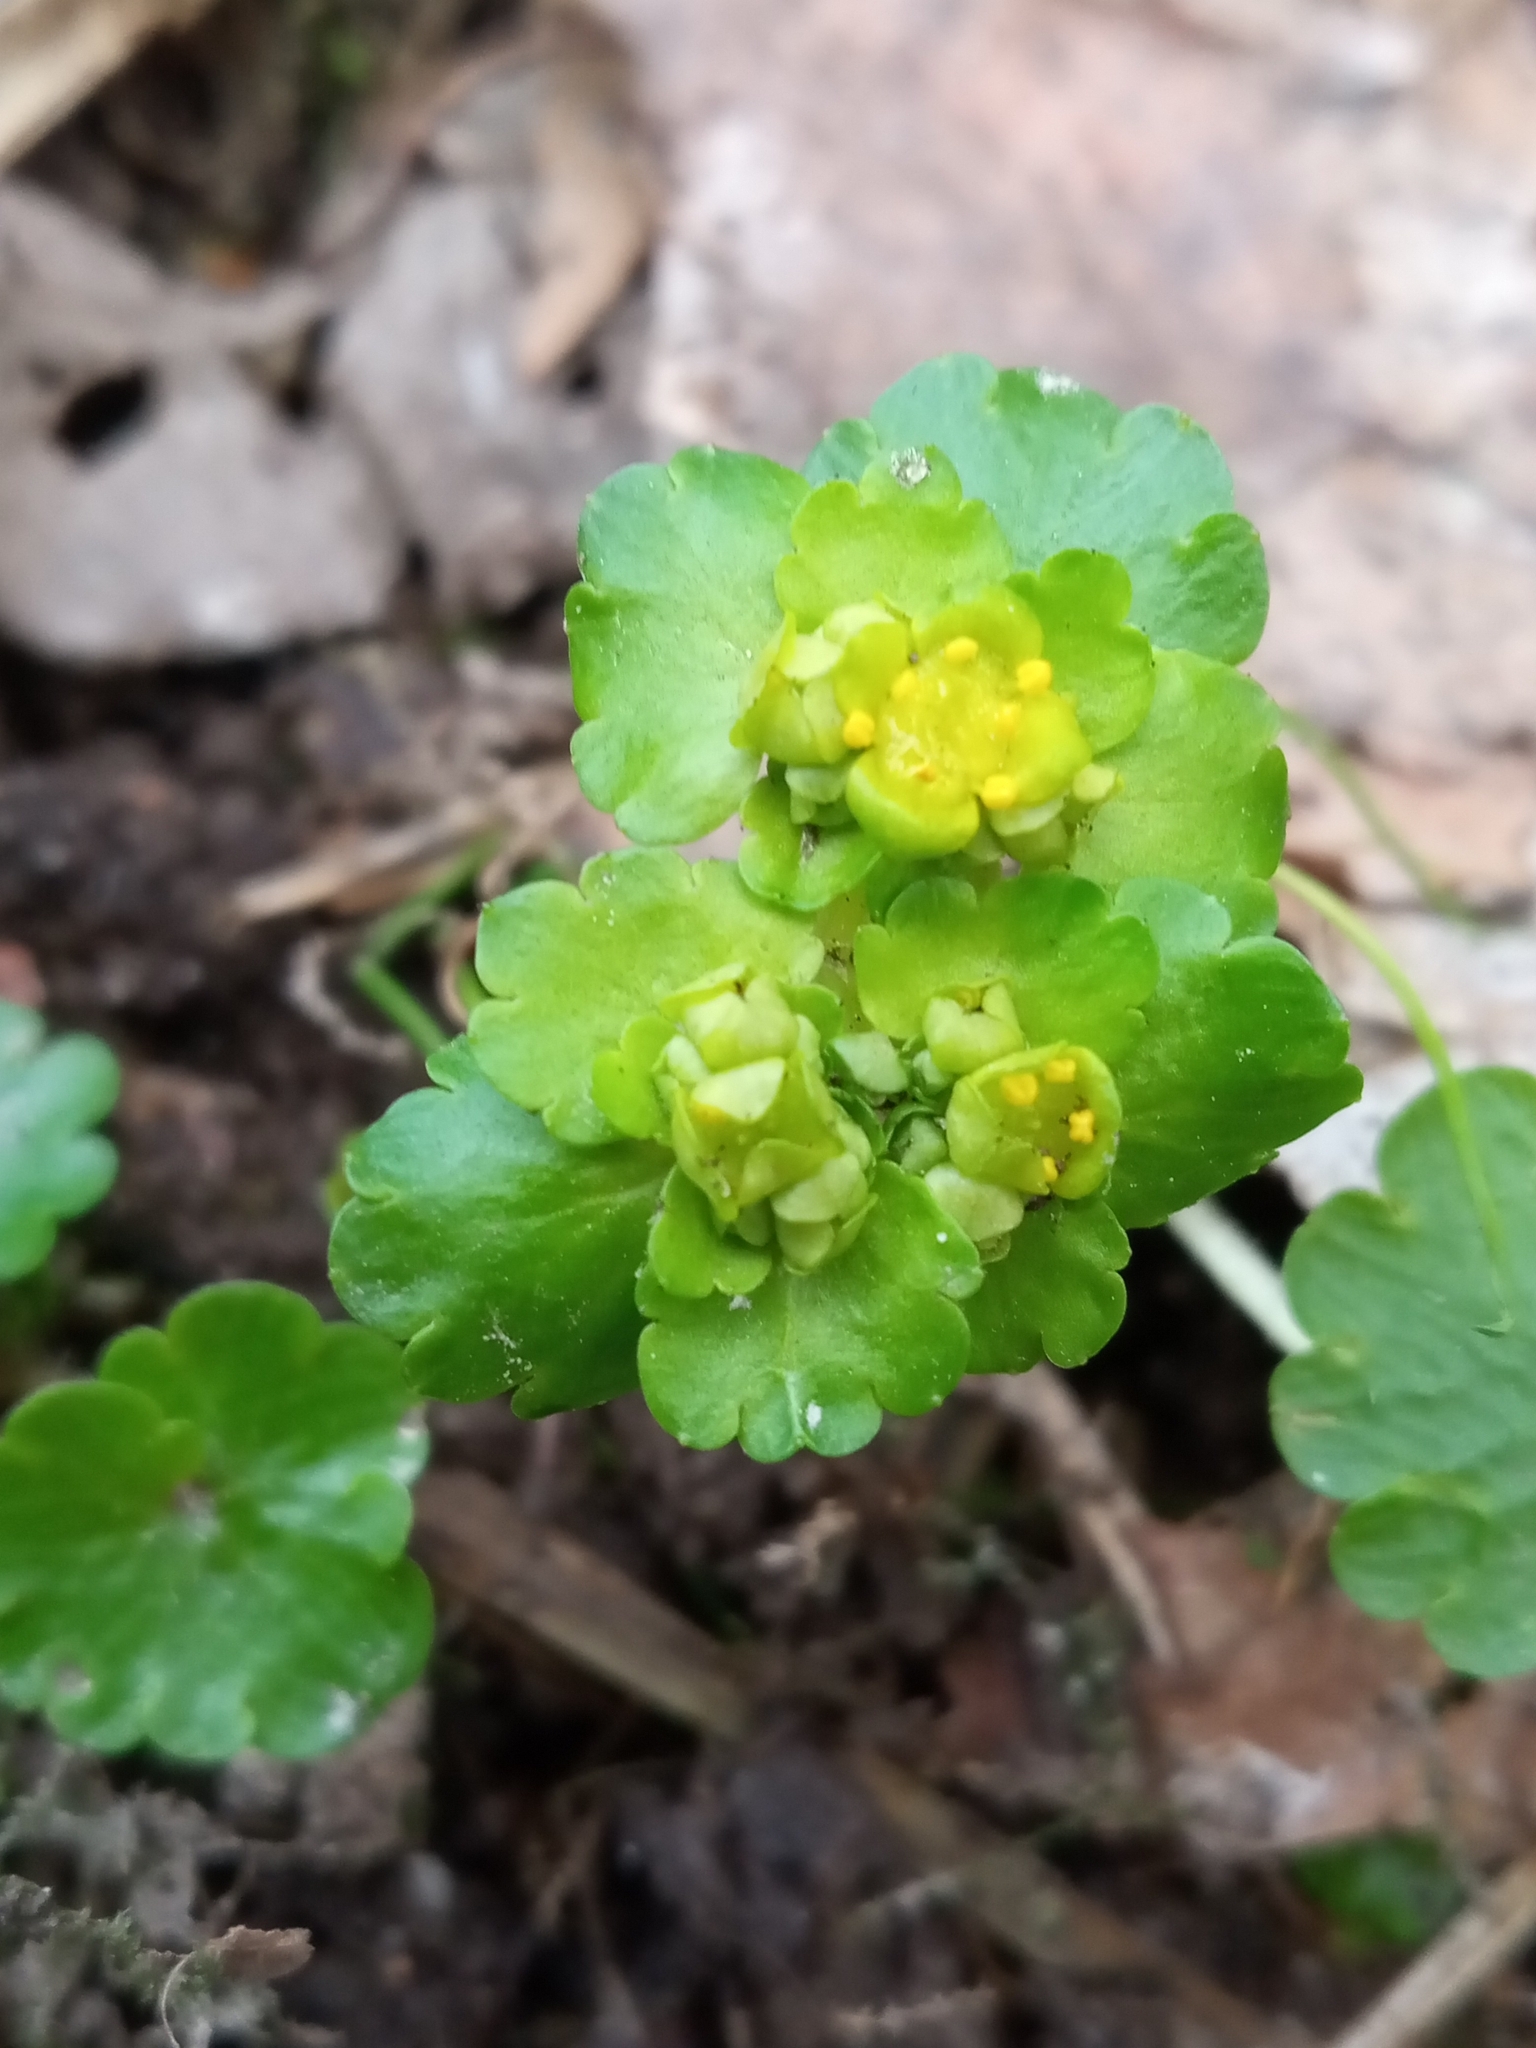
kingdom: Plantae
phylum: Tracheophyta
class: Magnoliopsida
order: Saxifragales
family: Saxifragaceae
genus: Chrysosplenium
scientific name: Chrysosplenium alternifolium
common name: Alternate-leaved golden-saxifrage
